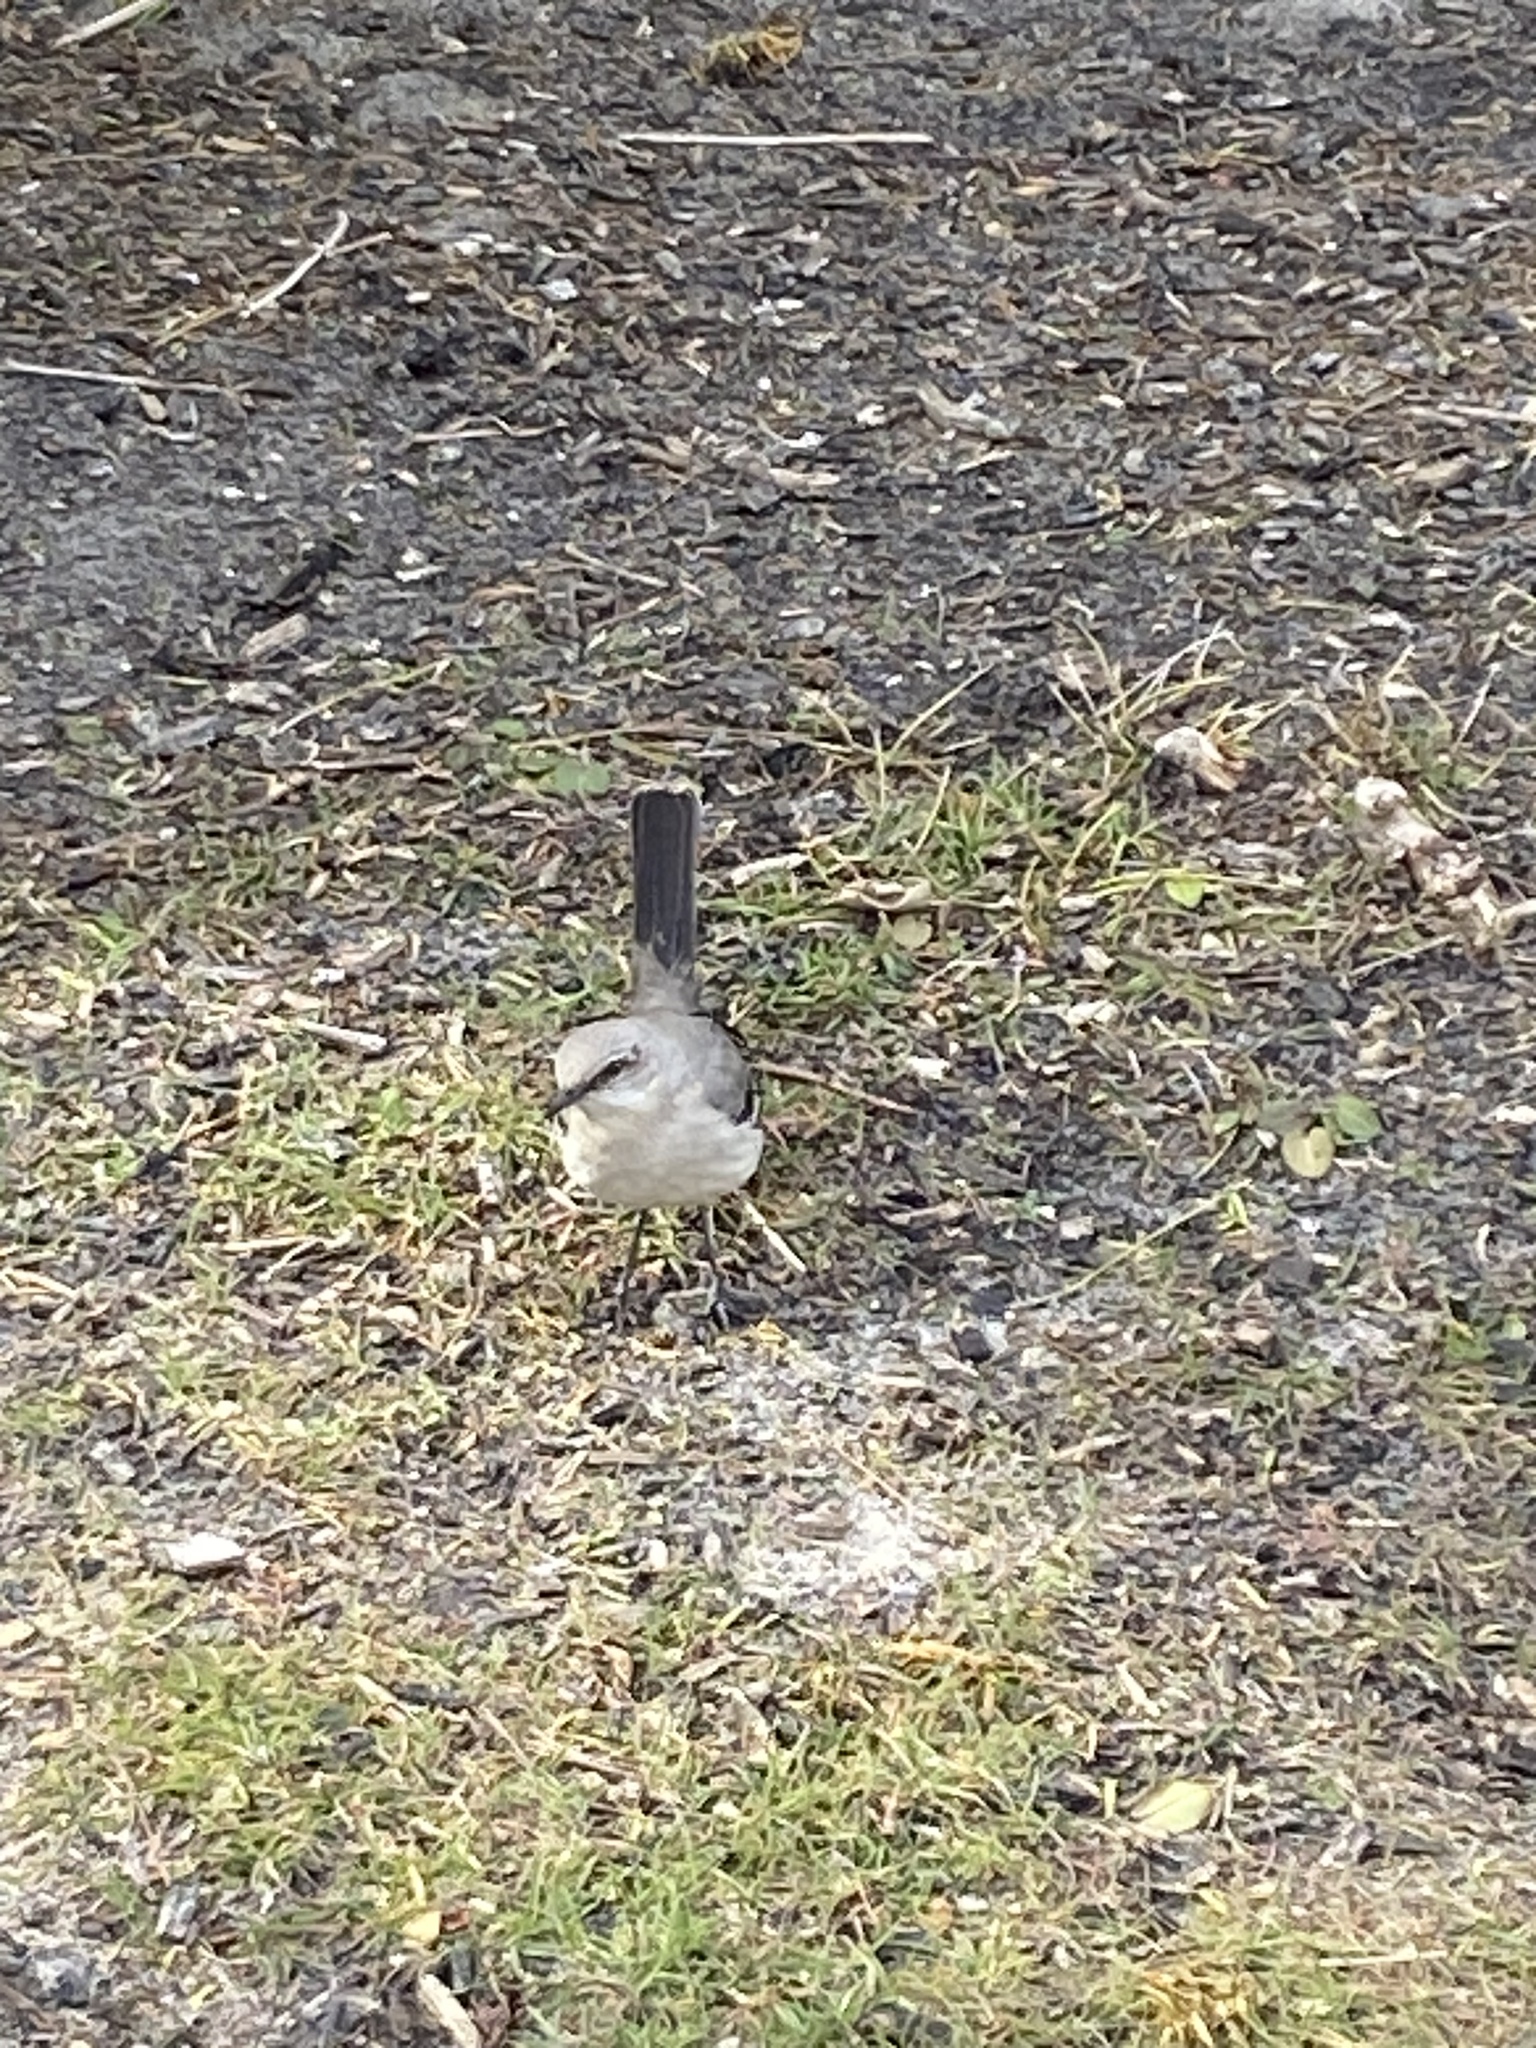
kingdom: Animalia
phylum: Chordata
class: Aves
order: Passeriformes
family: Mimidae
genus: Mimus
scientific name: Mimus polyglottos
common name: Northern mockingbird
